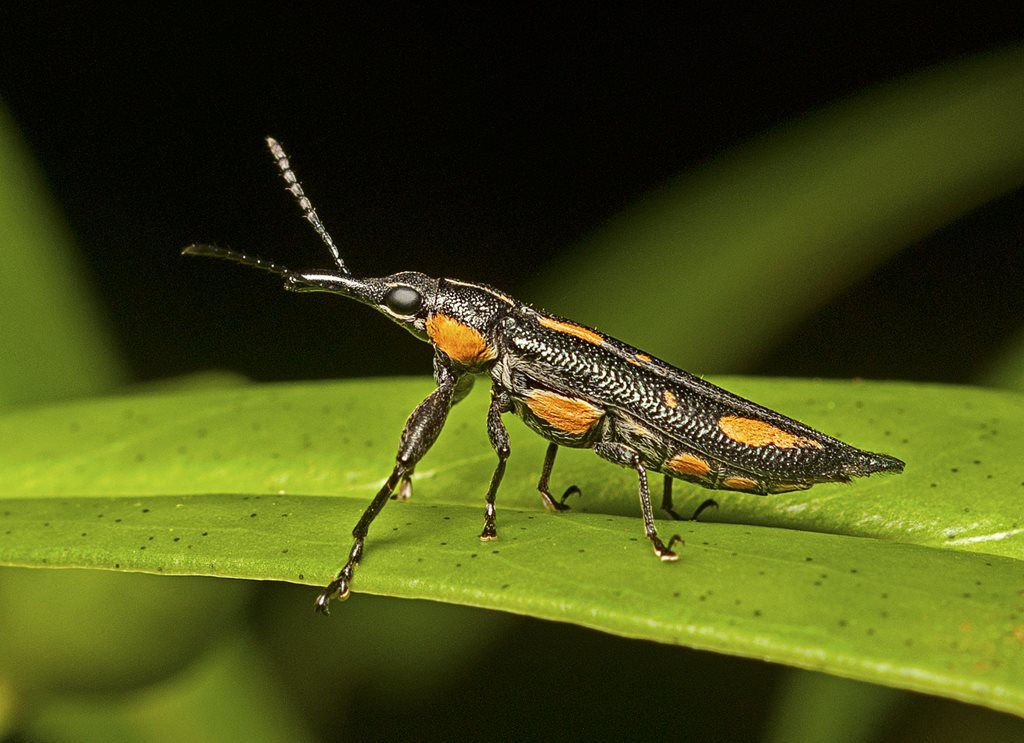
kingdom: Animalia
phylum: Arthropoda
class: Insecta
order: Coleoptera
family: Belidae
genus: Rhinotia
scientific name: Rhinotia
